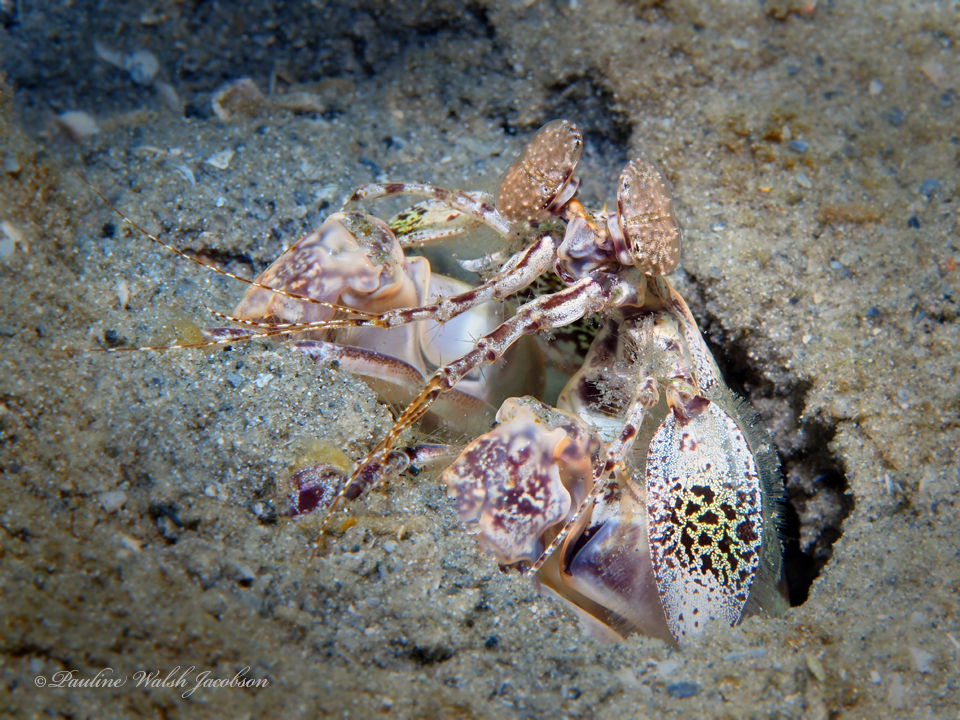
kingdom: Animalia
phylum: Arthropoda
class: Malacostraca
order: Stomatopoda
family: Lysiosquillidae
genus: Lysiosquilla
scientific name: Lysiosquilla scabricauda
